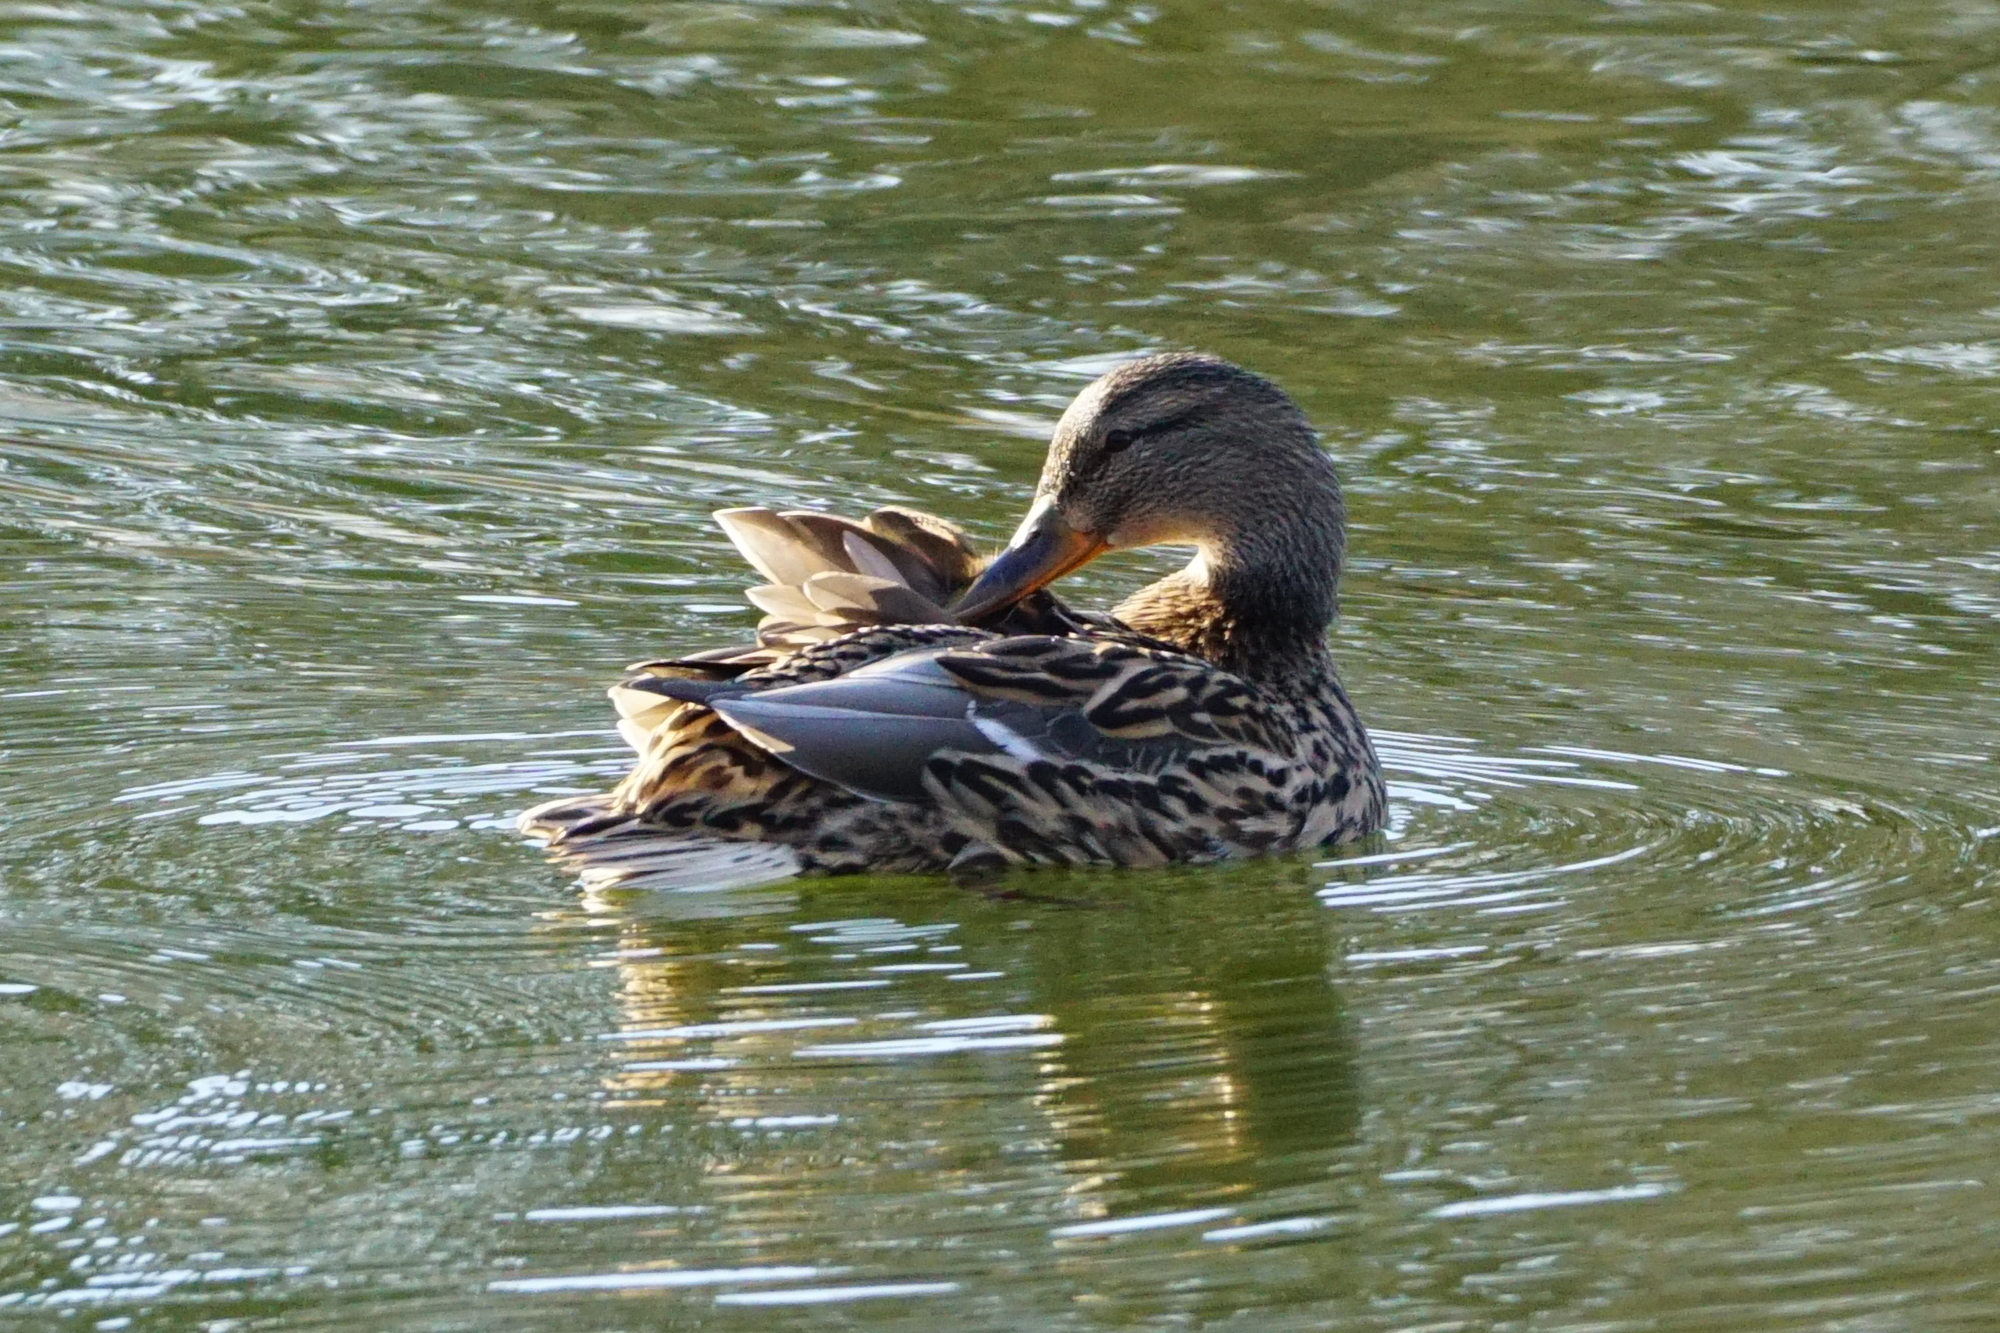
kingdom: Animalia
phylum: Chordata
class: Aves
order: Anseriformes
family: Anatidae
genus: Anas
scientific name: Anas platyrhynchos
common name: Mallard
